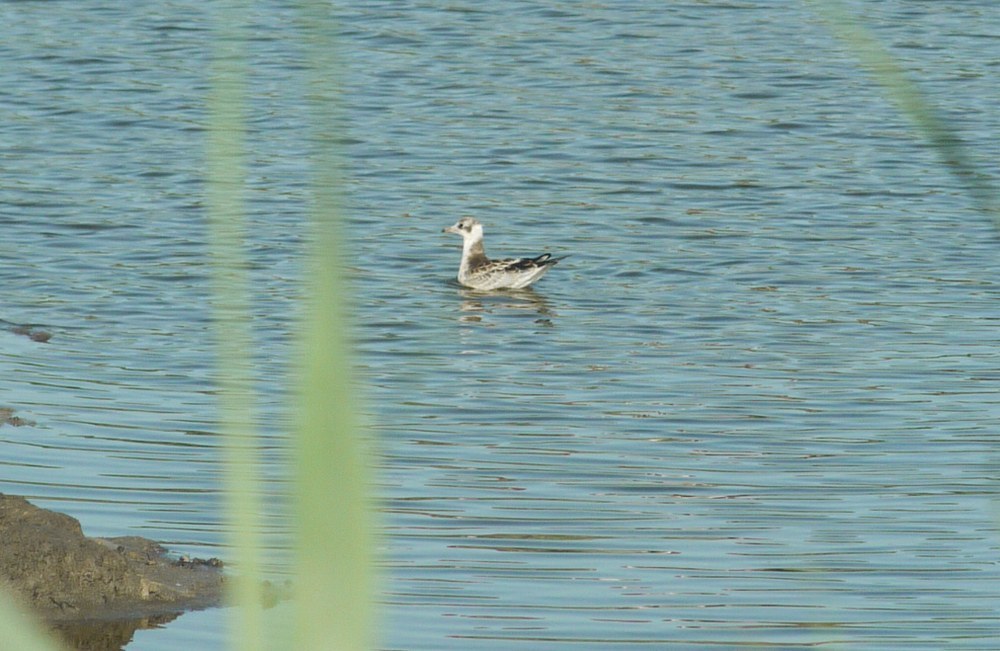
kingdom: Animalia
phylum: Chordata
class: Aves
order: Charadriiformes
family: Laridae
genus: Chroicocephalus
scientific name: Chroicocephalus ridibundus
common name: Black-headed gull
